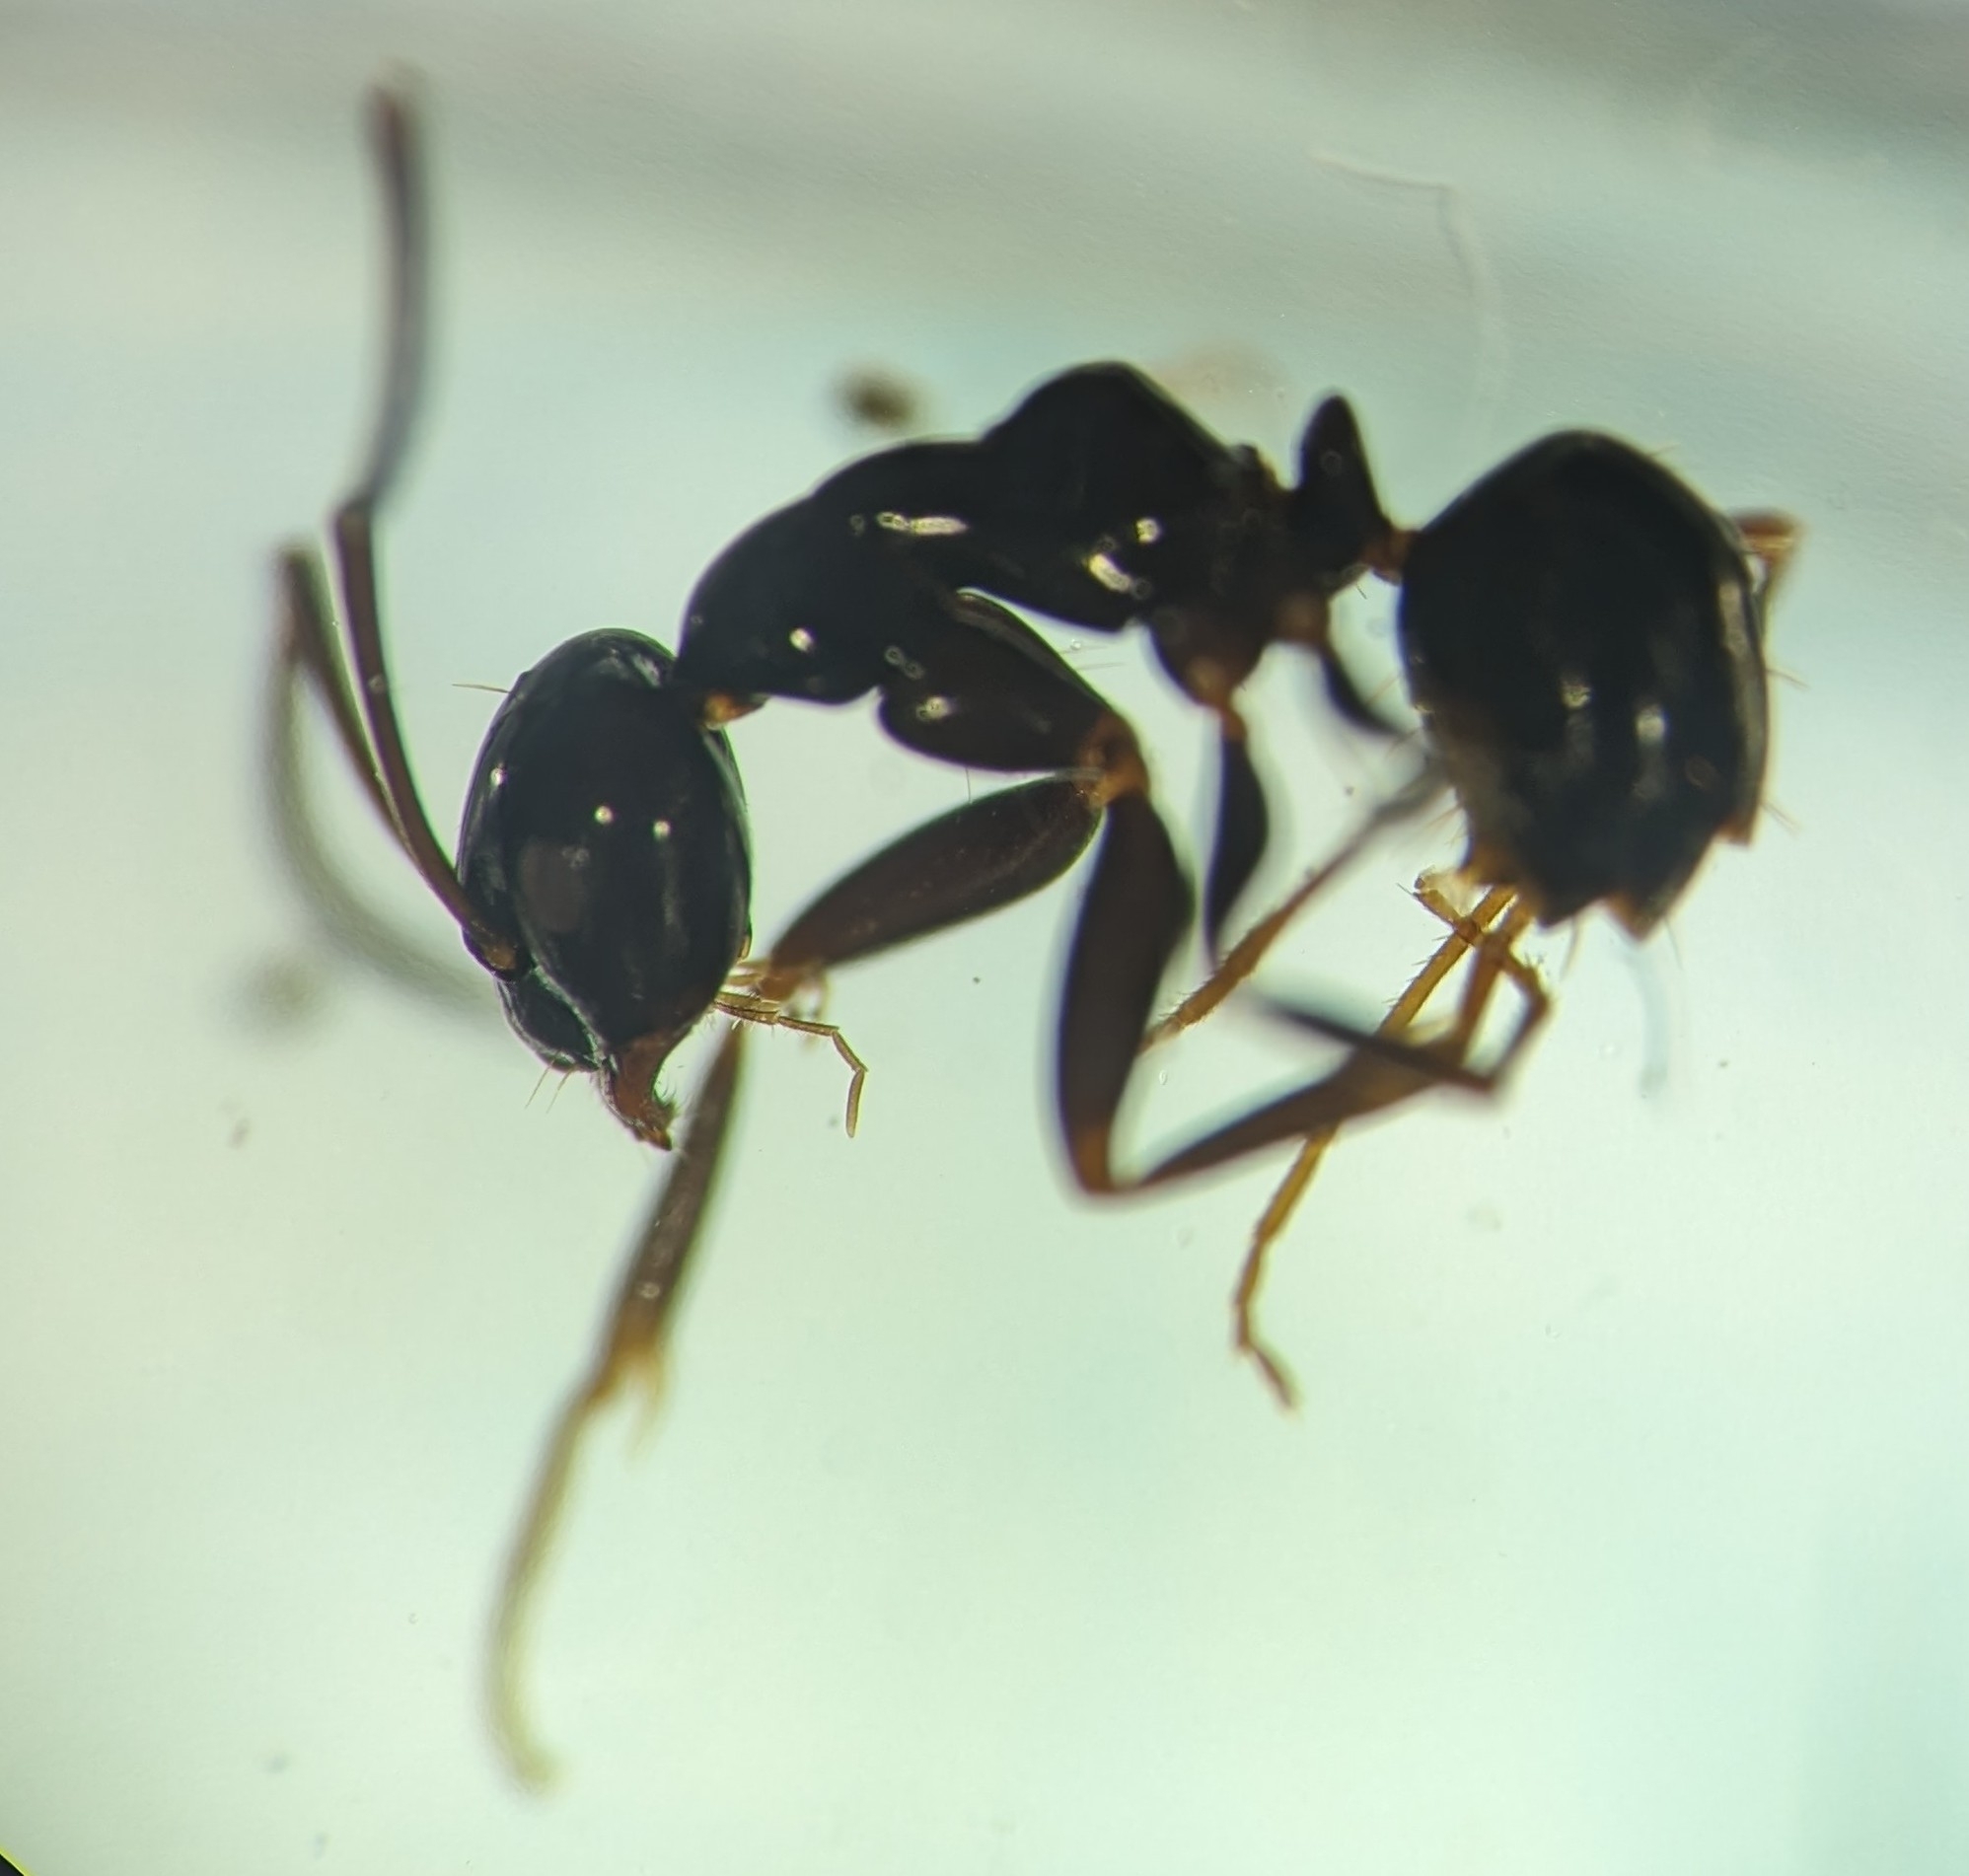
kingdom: Animalia
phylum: Arthropoda
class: Insecta
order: Hymenoptera
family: Formicidae
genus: Prolasius
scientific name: Prolasius nitidissimus
